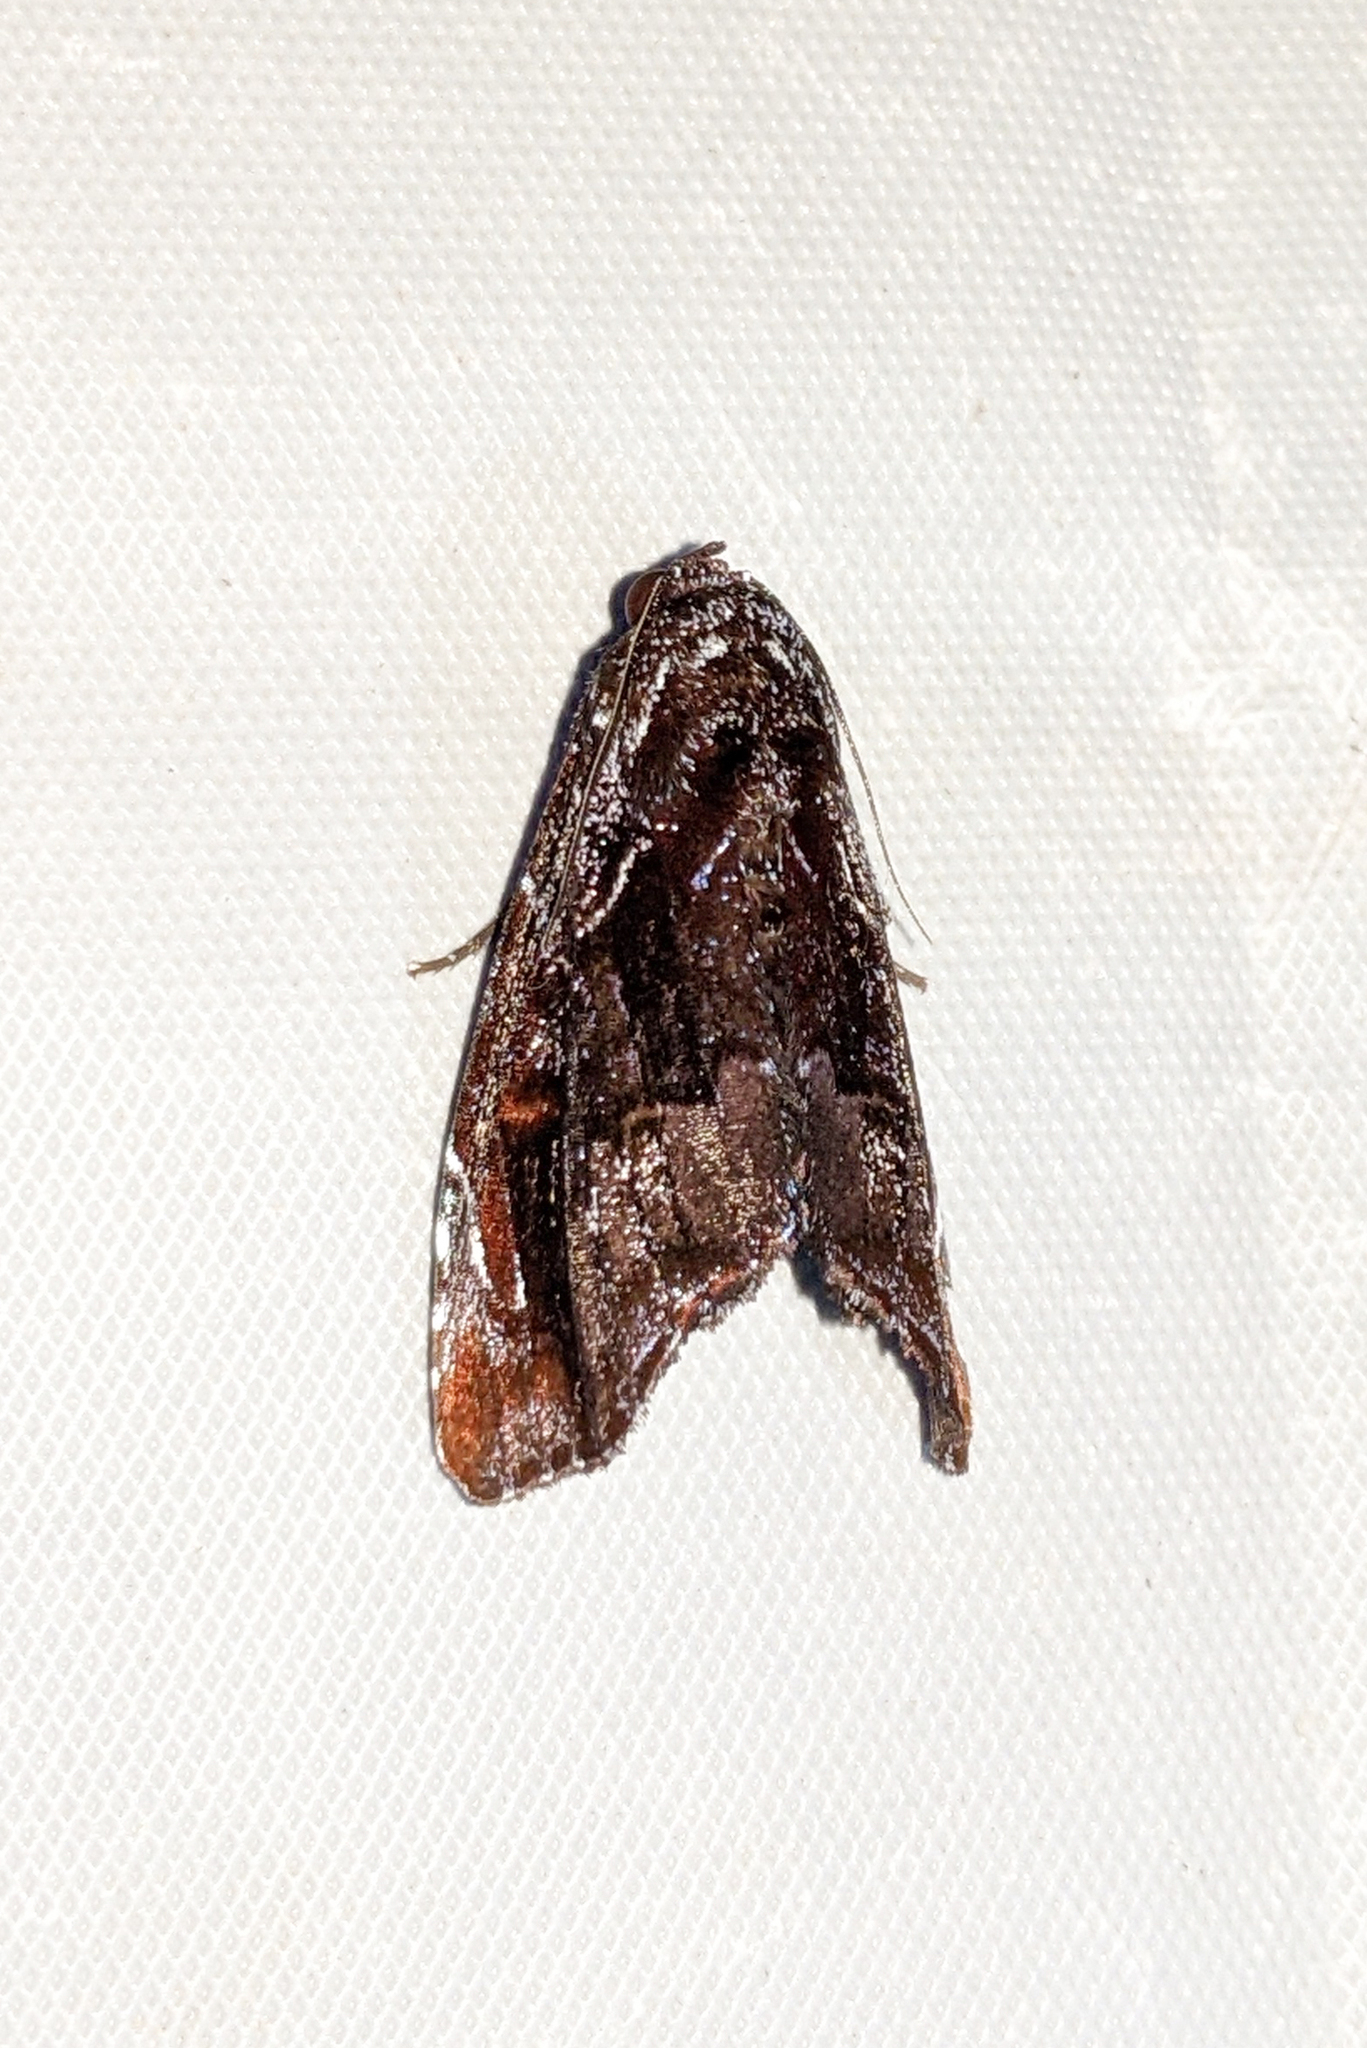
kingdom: Animalia
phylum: Arthropoda
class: Insecta
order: Lepidoptera
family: Noctuidae
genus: Vespola
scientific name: Vespola caeruleifera
